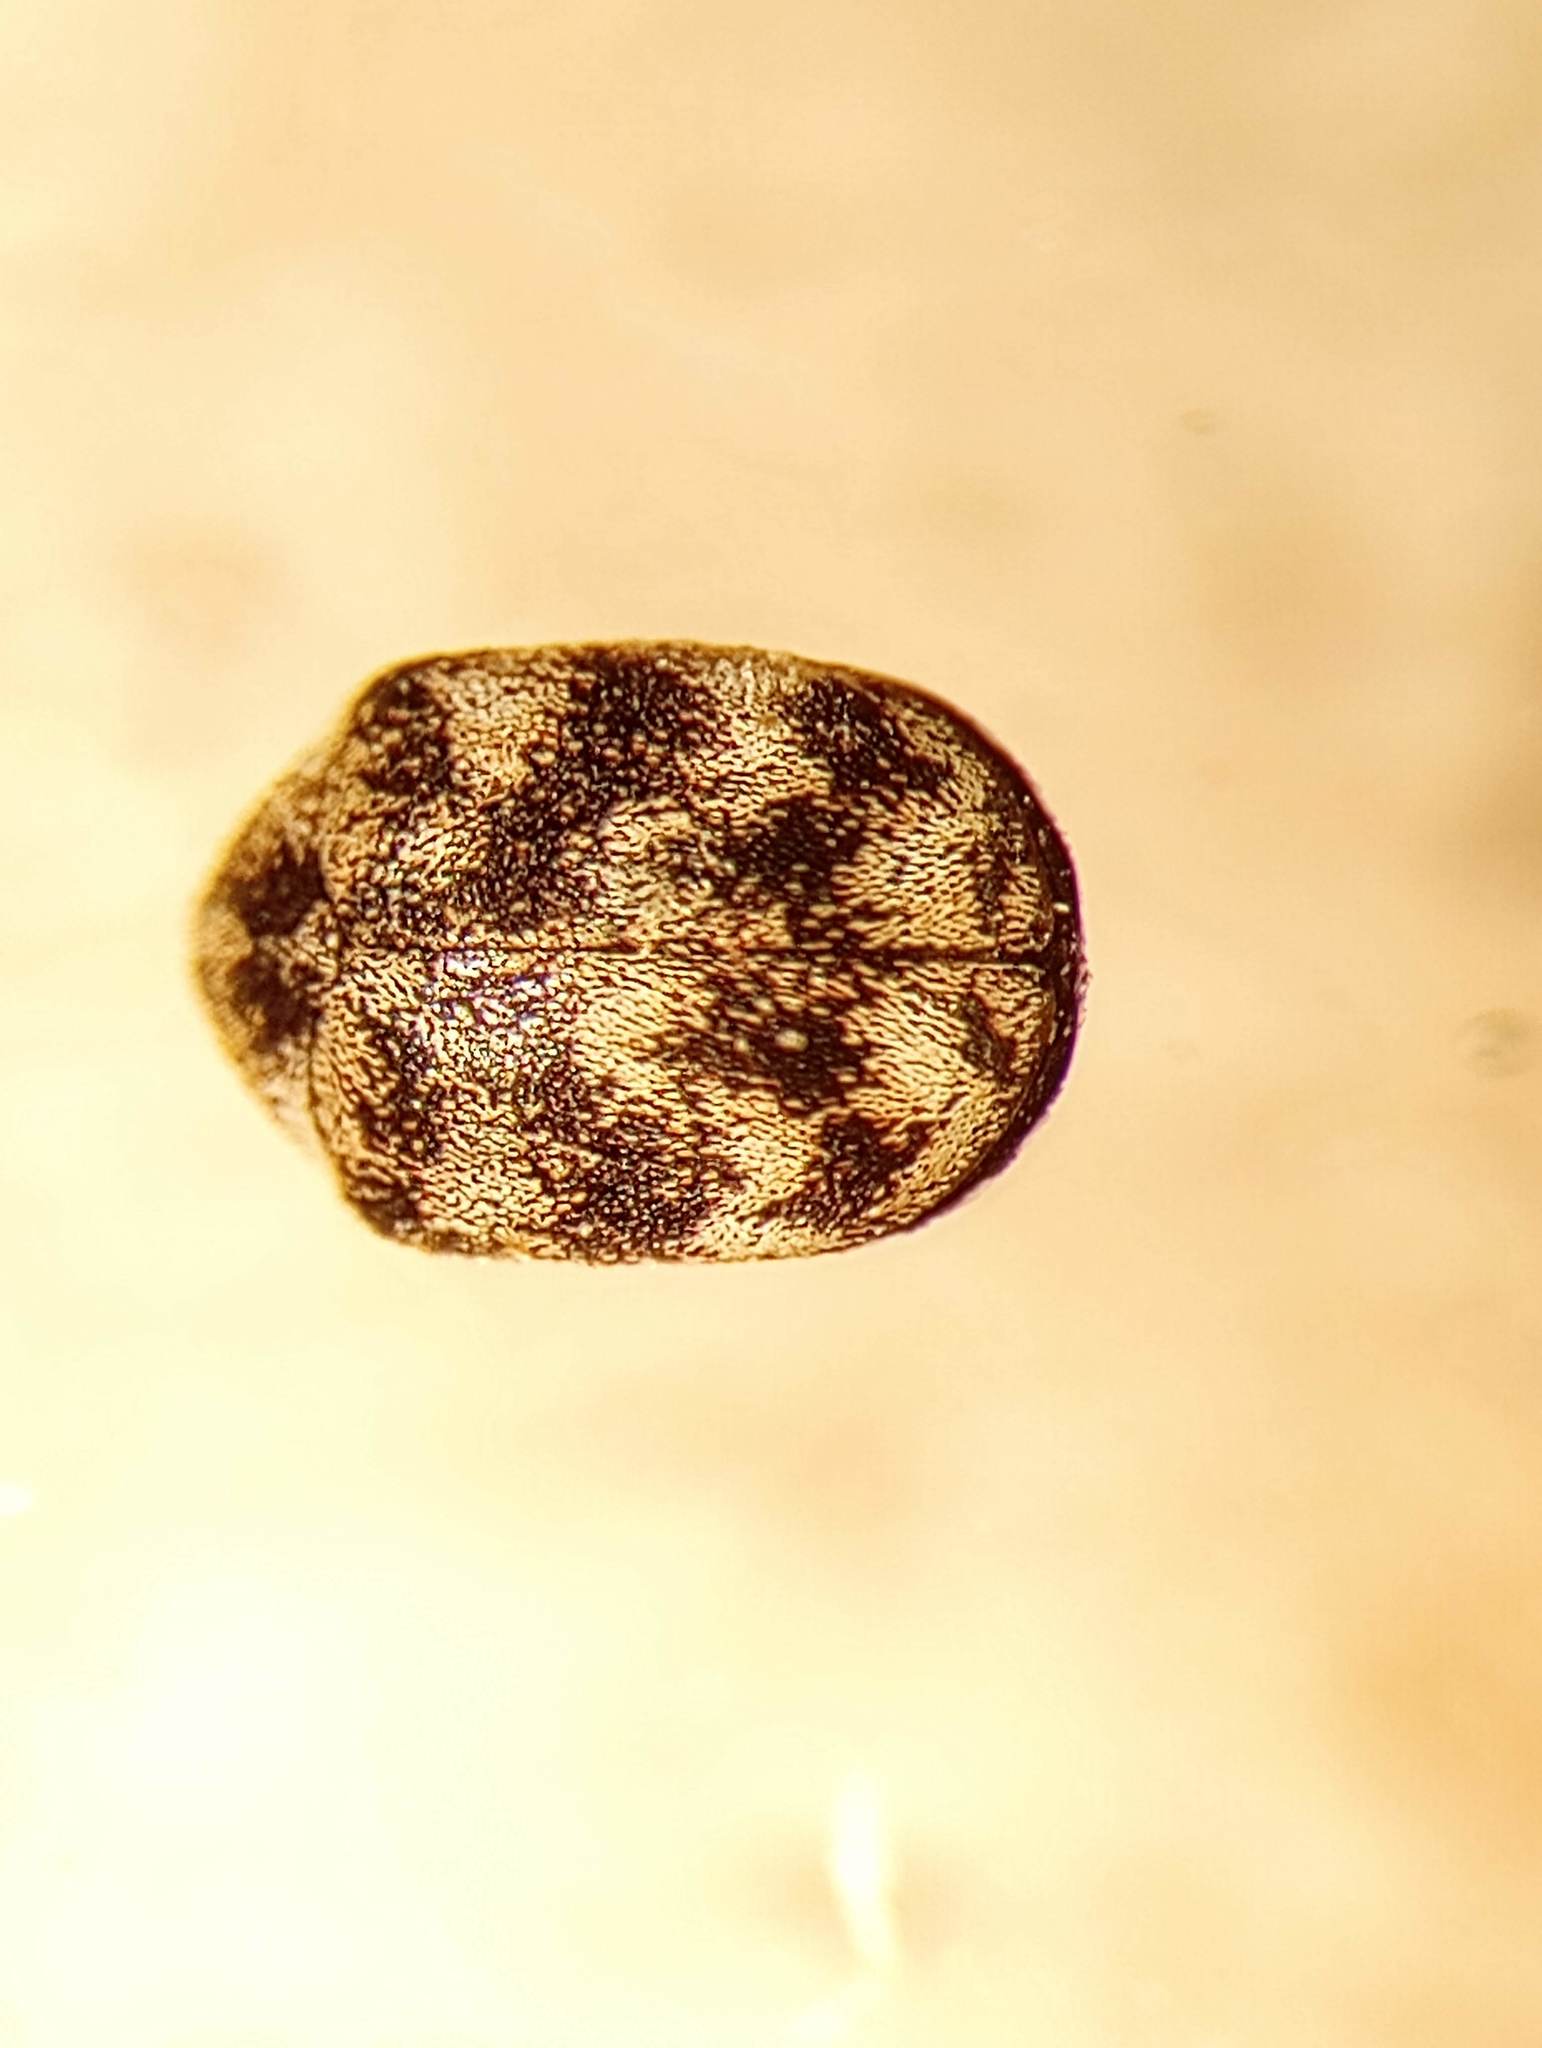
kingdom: Animalia
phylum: Arthropoda
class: Insecta
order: Coleoptera
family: Dermestidae
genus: Anthrenus
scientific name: Anthrenus verbasci
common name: Varied carpet beetle
